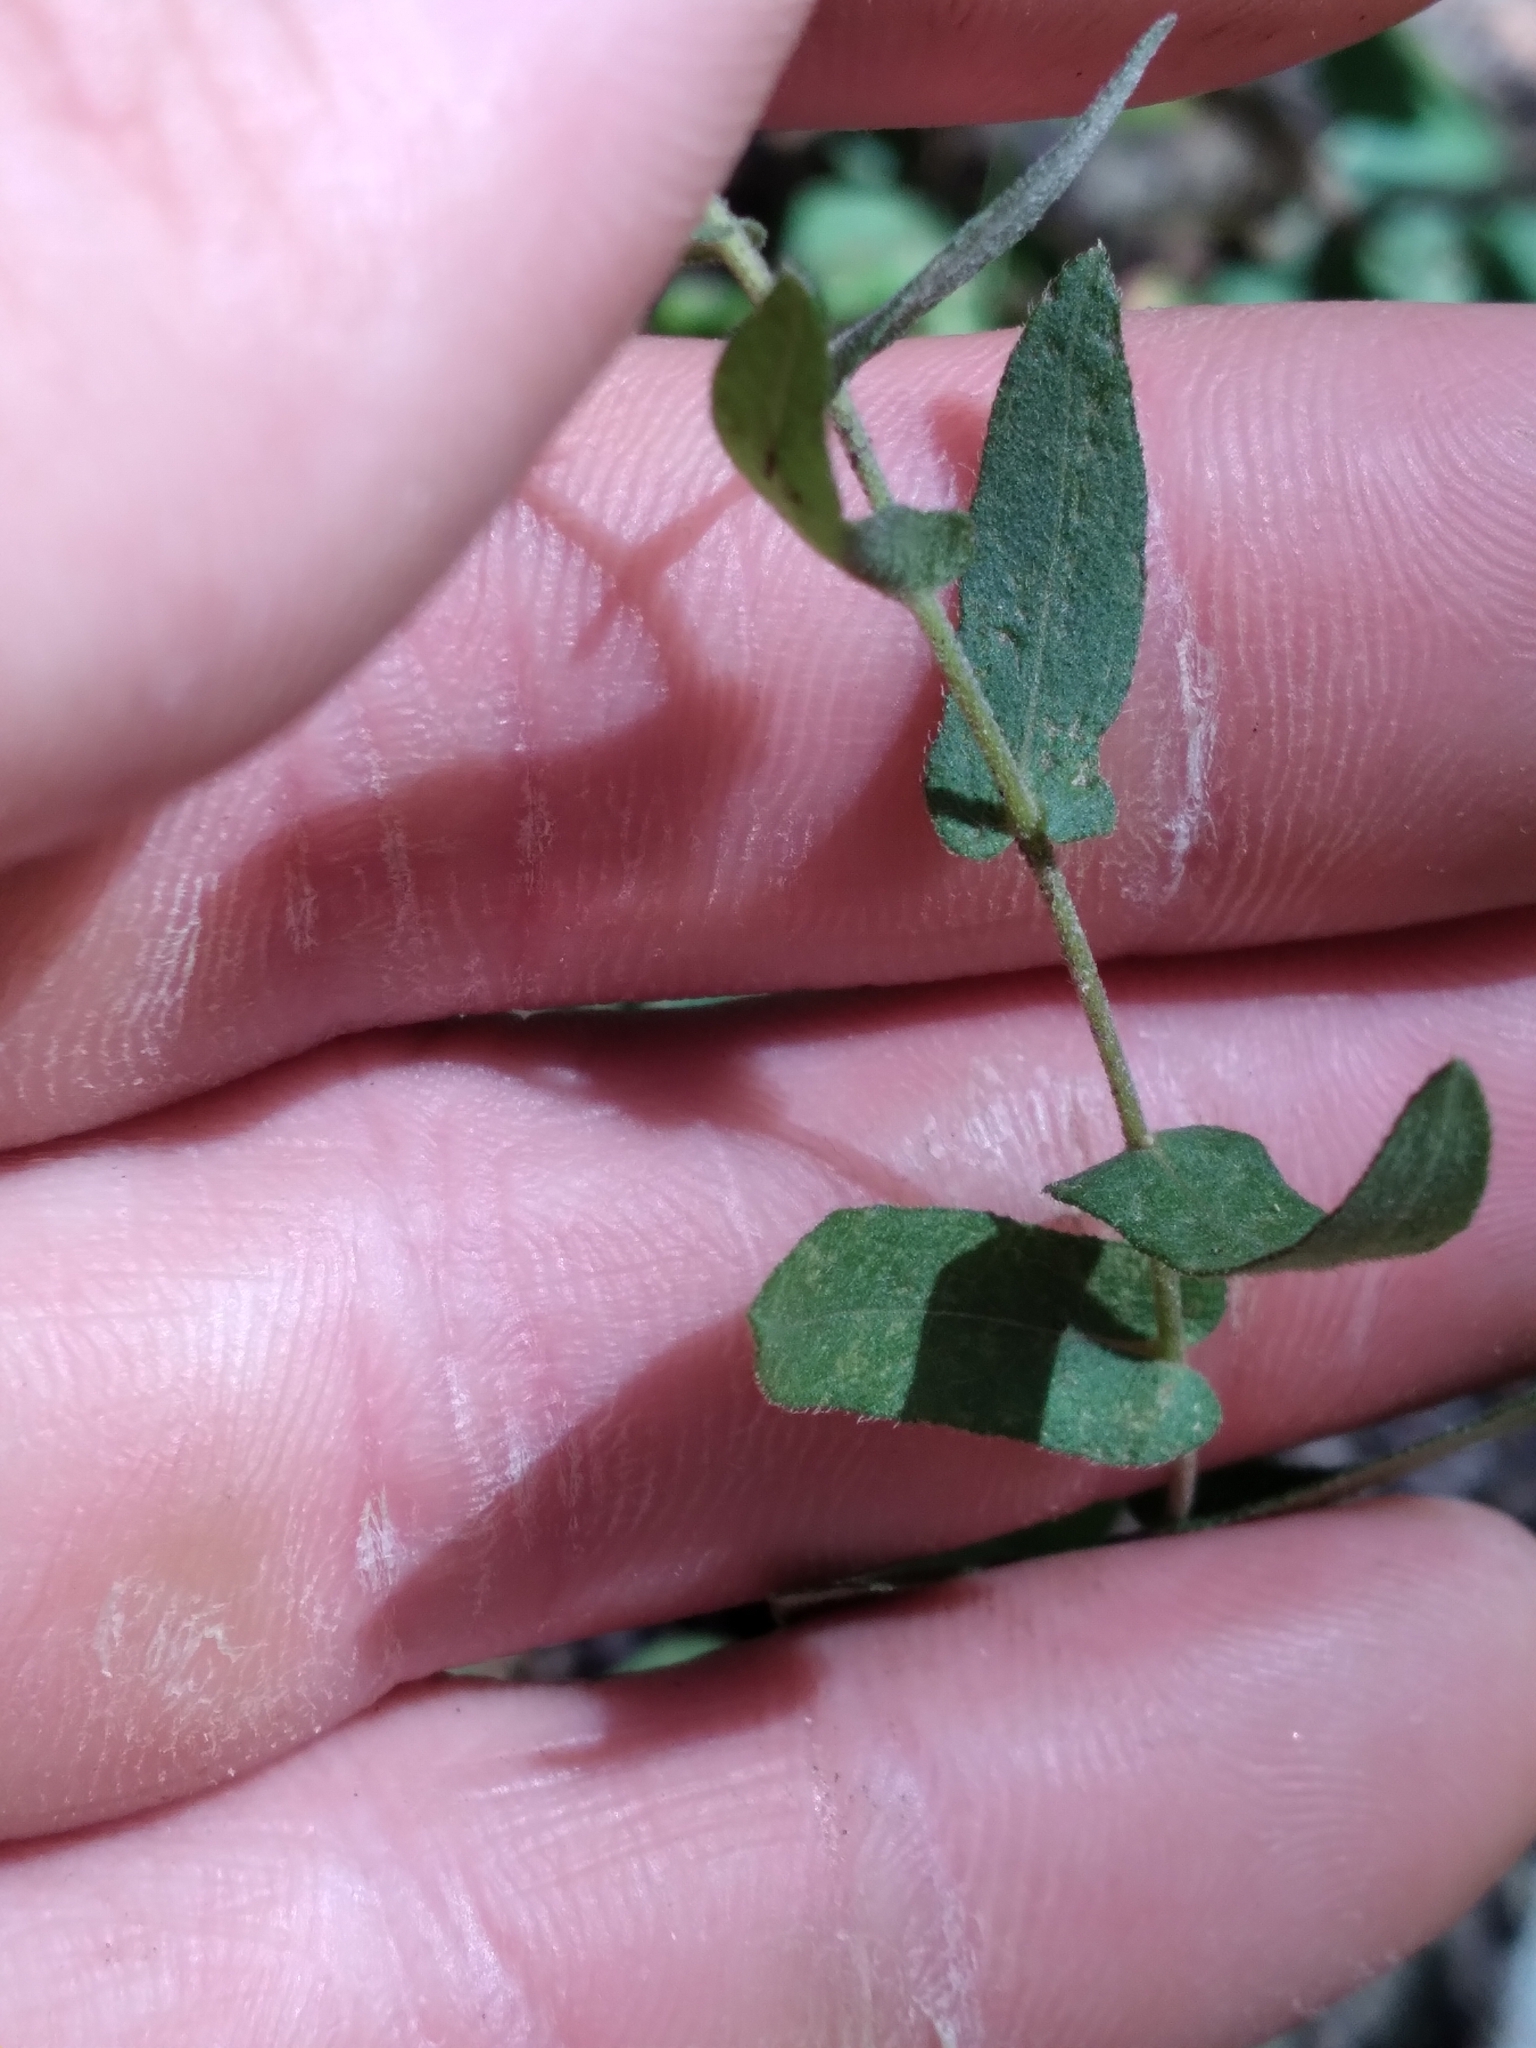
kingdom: Plantae
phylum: Tracheophyta
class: Magnoliopsida
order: Asterales
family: Asteraceae
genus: Symphyotrichum
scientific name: Symphyotrichum patens
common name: Late purple aster
